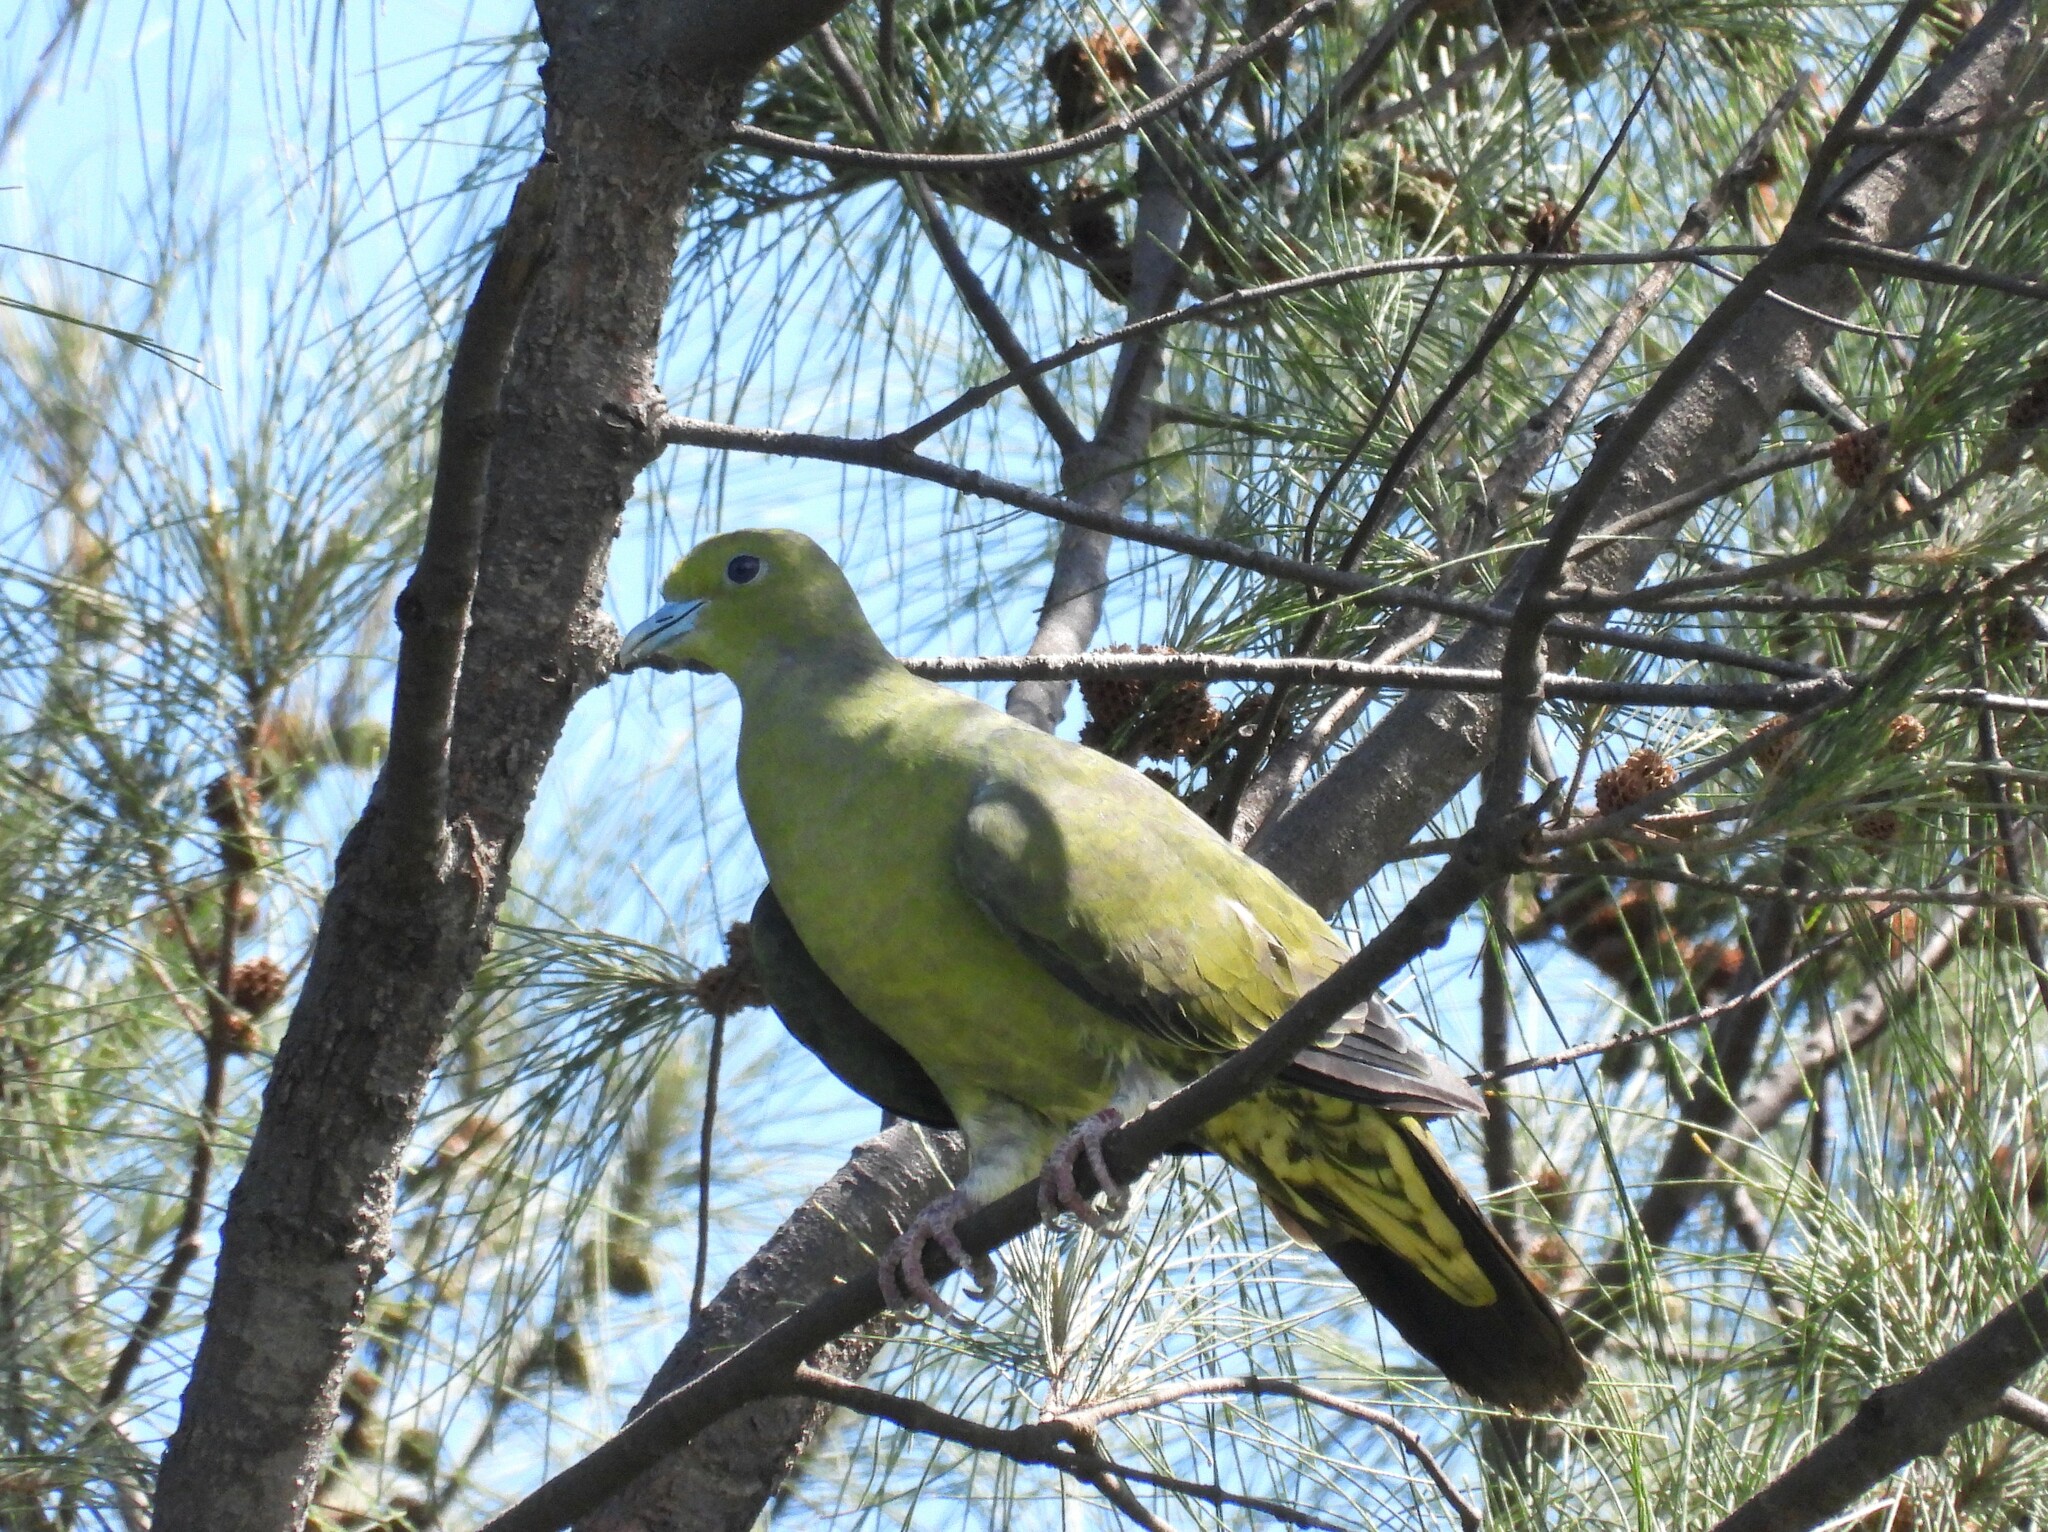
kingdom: Animalia
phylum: Chordata
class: Aves
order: Columbiformes
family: Columbidae
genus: Treron
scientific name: Treron formosae
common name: Whistling green-pigeon
